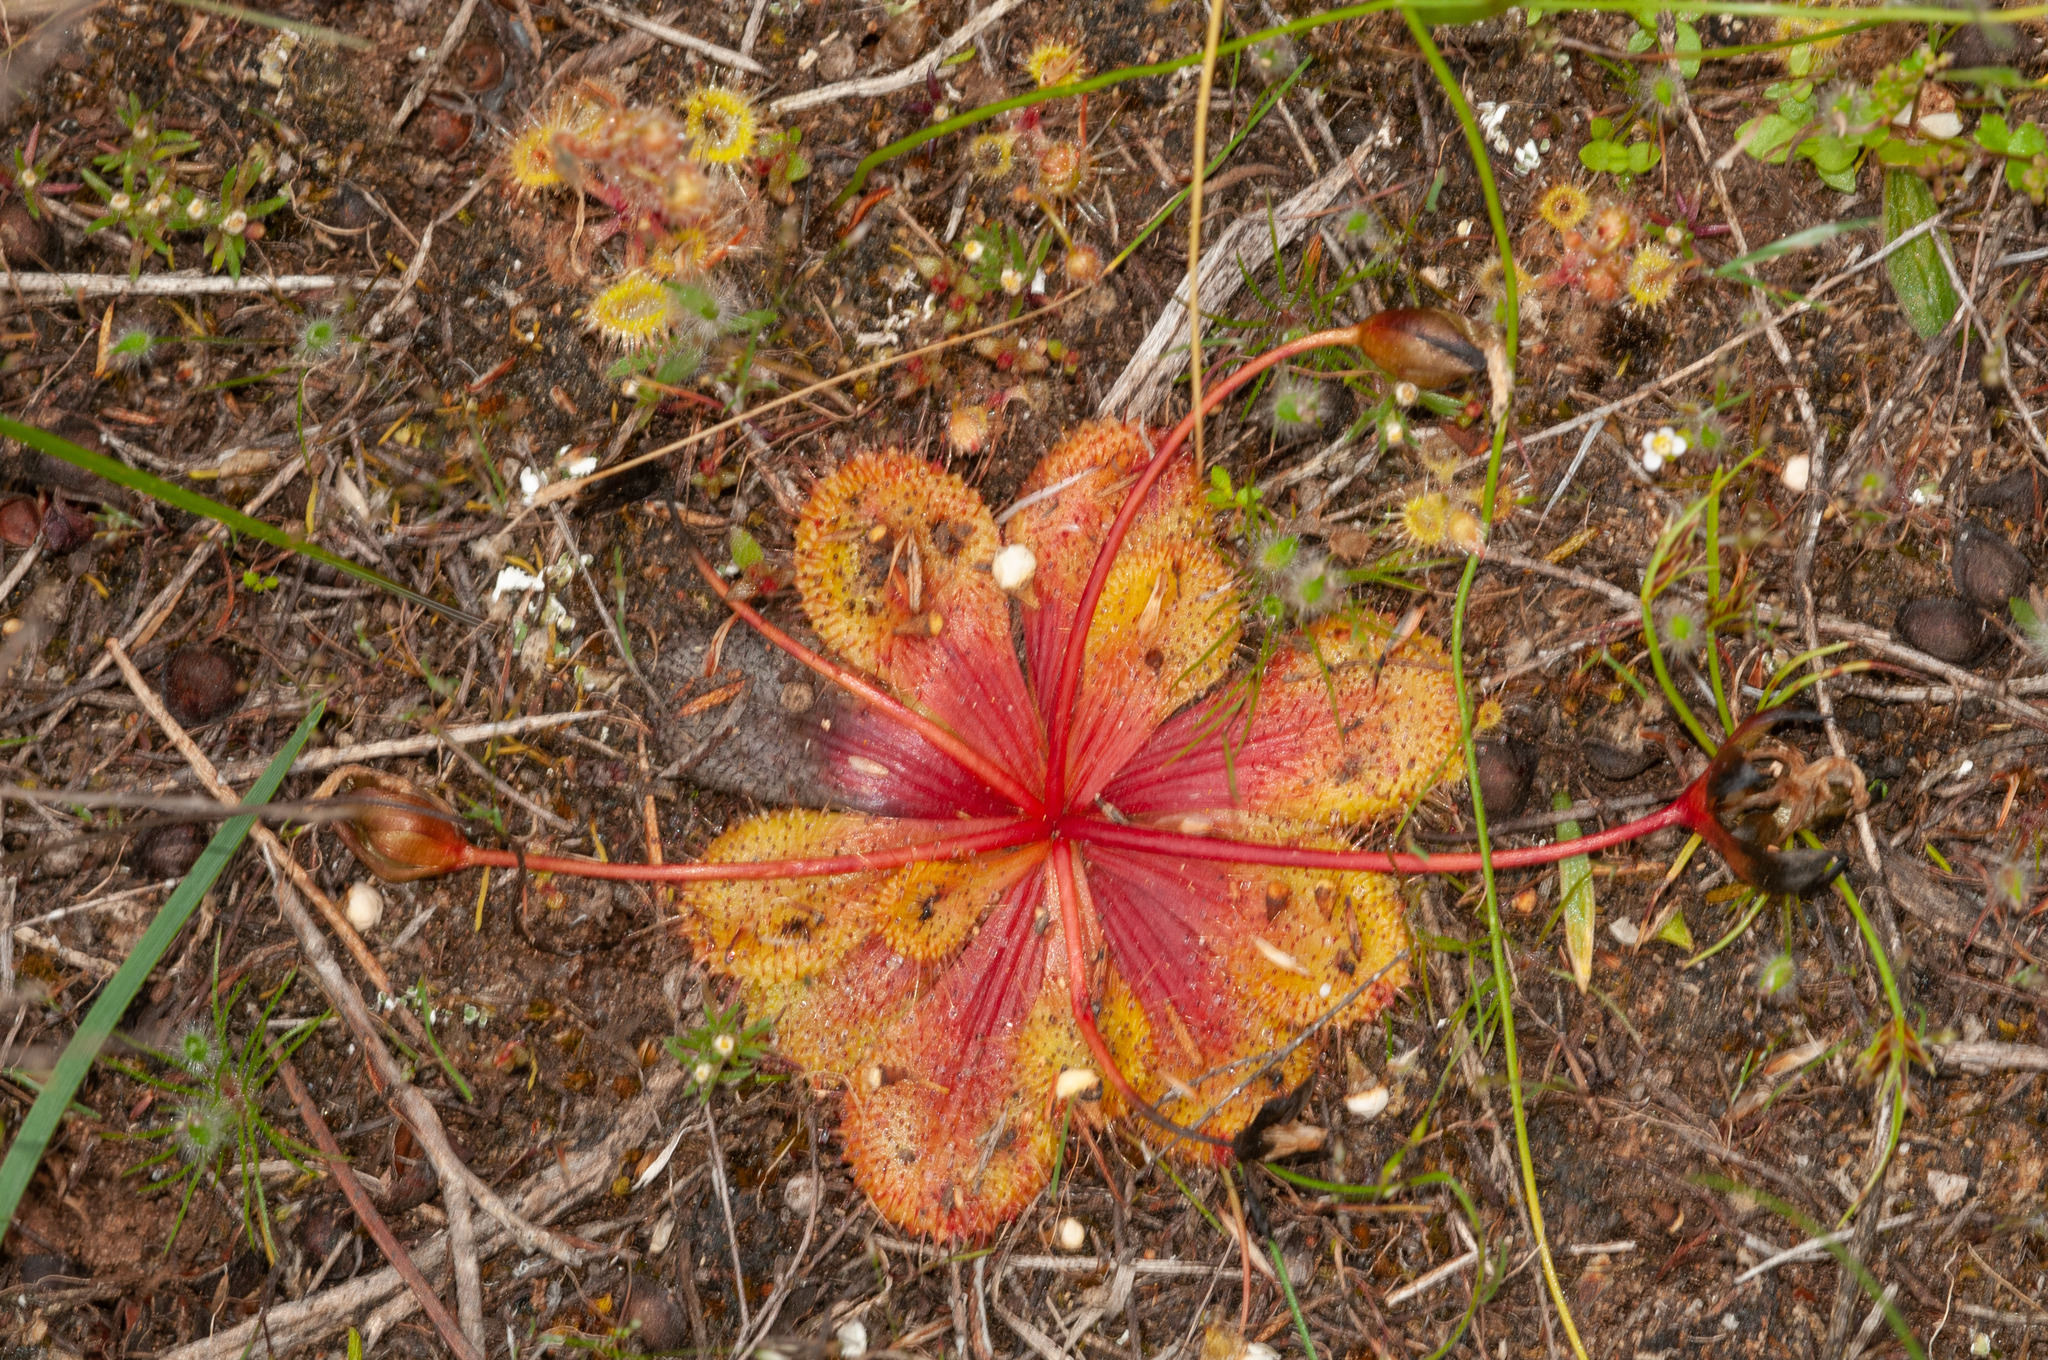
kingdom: Plantae
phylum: Tracheophyta
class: Magnoliopsida
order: Caryophyllales
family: Droseraceae
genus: Drosera
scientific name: Drosera whittakeri
